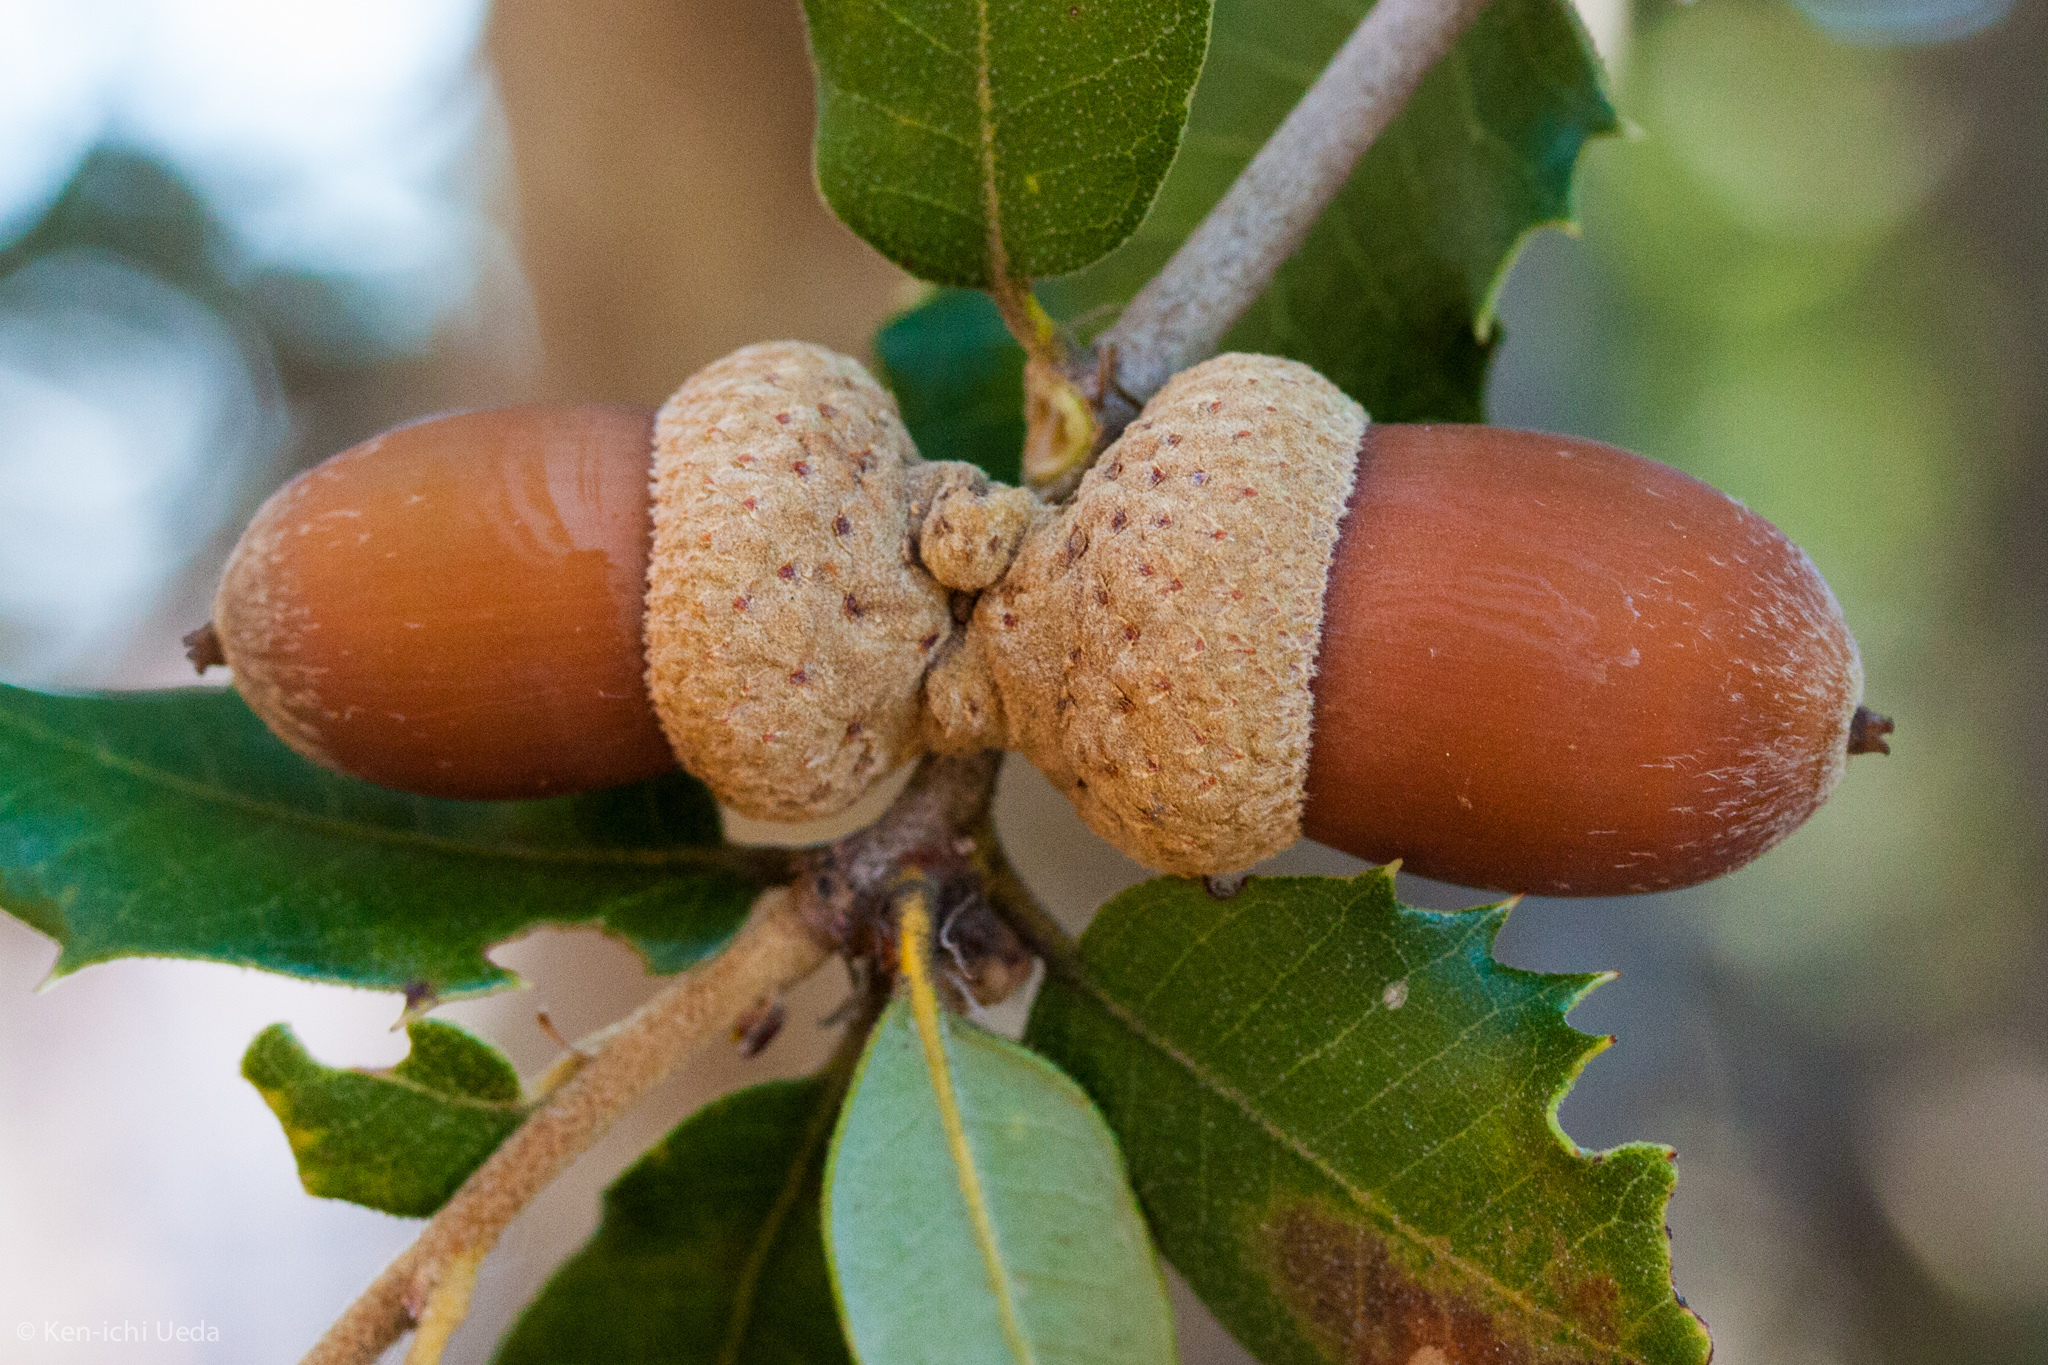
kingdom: Plantae
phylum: Tracheophyta
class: Magnoliopsida
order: Fagales
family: Fagaceae
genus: Quercus
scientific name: Quercus chrysolepis
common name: Canyon live oak
